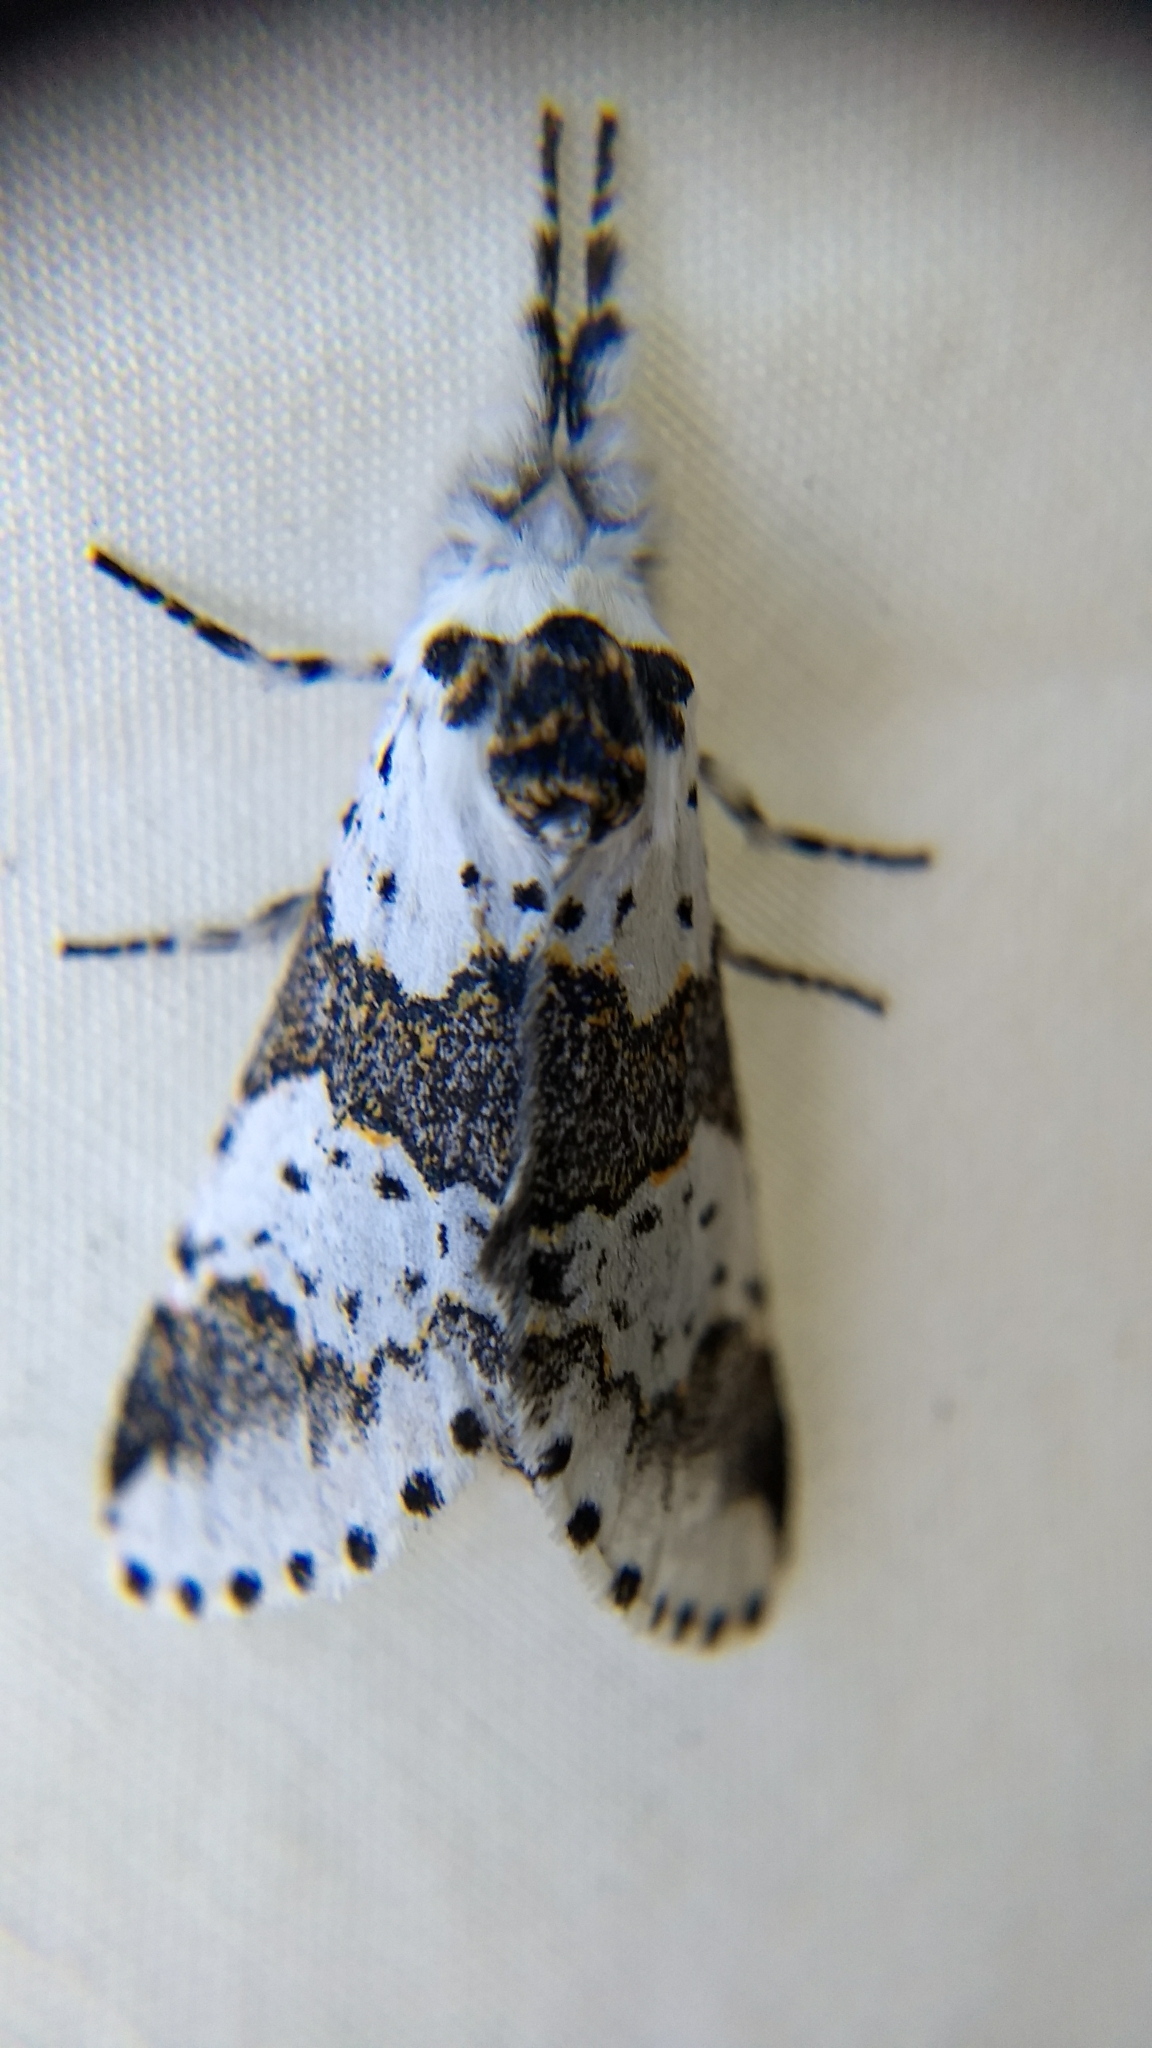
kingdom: Animalia
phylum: Arthropoda
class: Insecta
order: Lepidoptera
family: Notodontidae
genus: Furcula
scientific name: Furcula borealis
